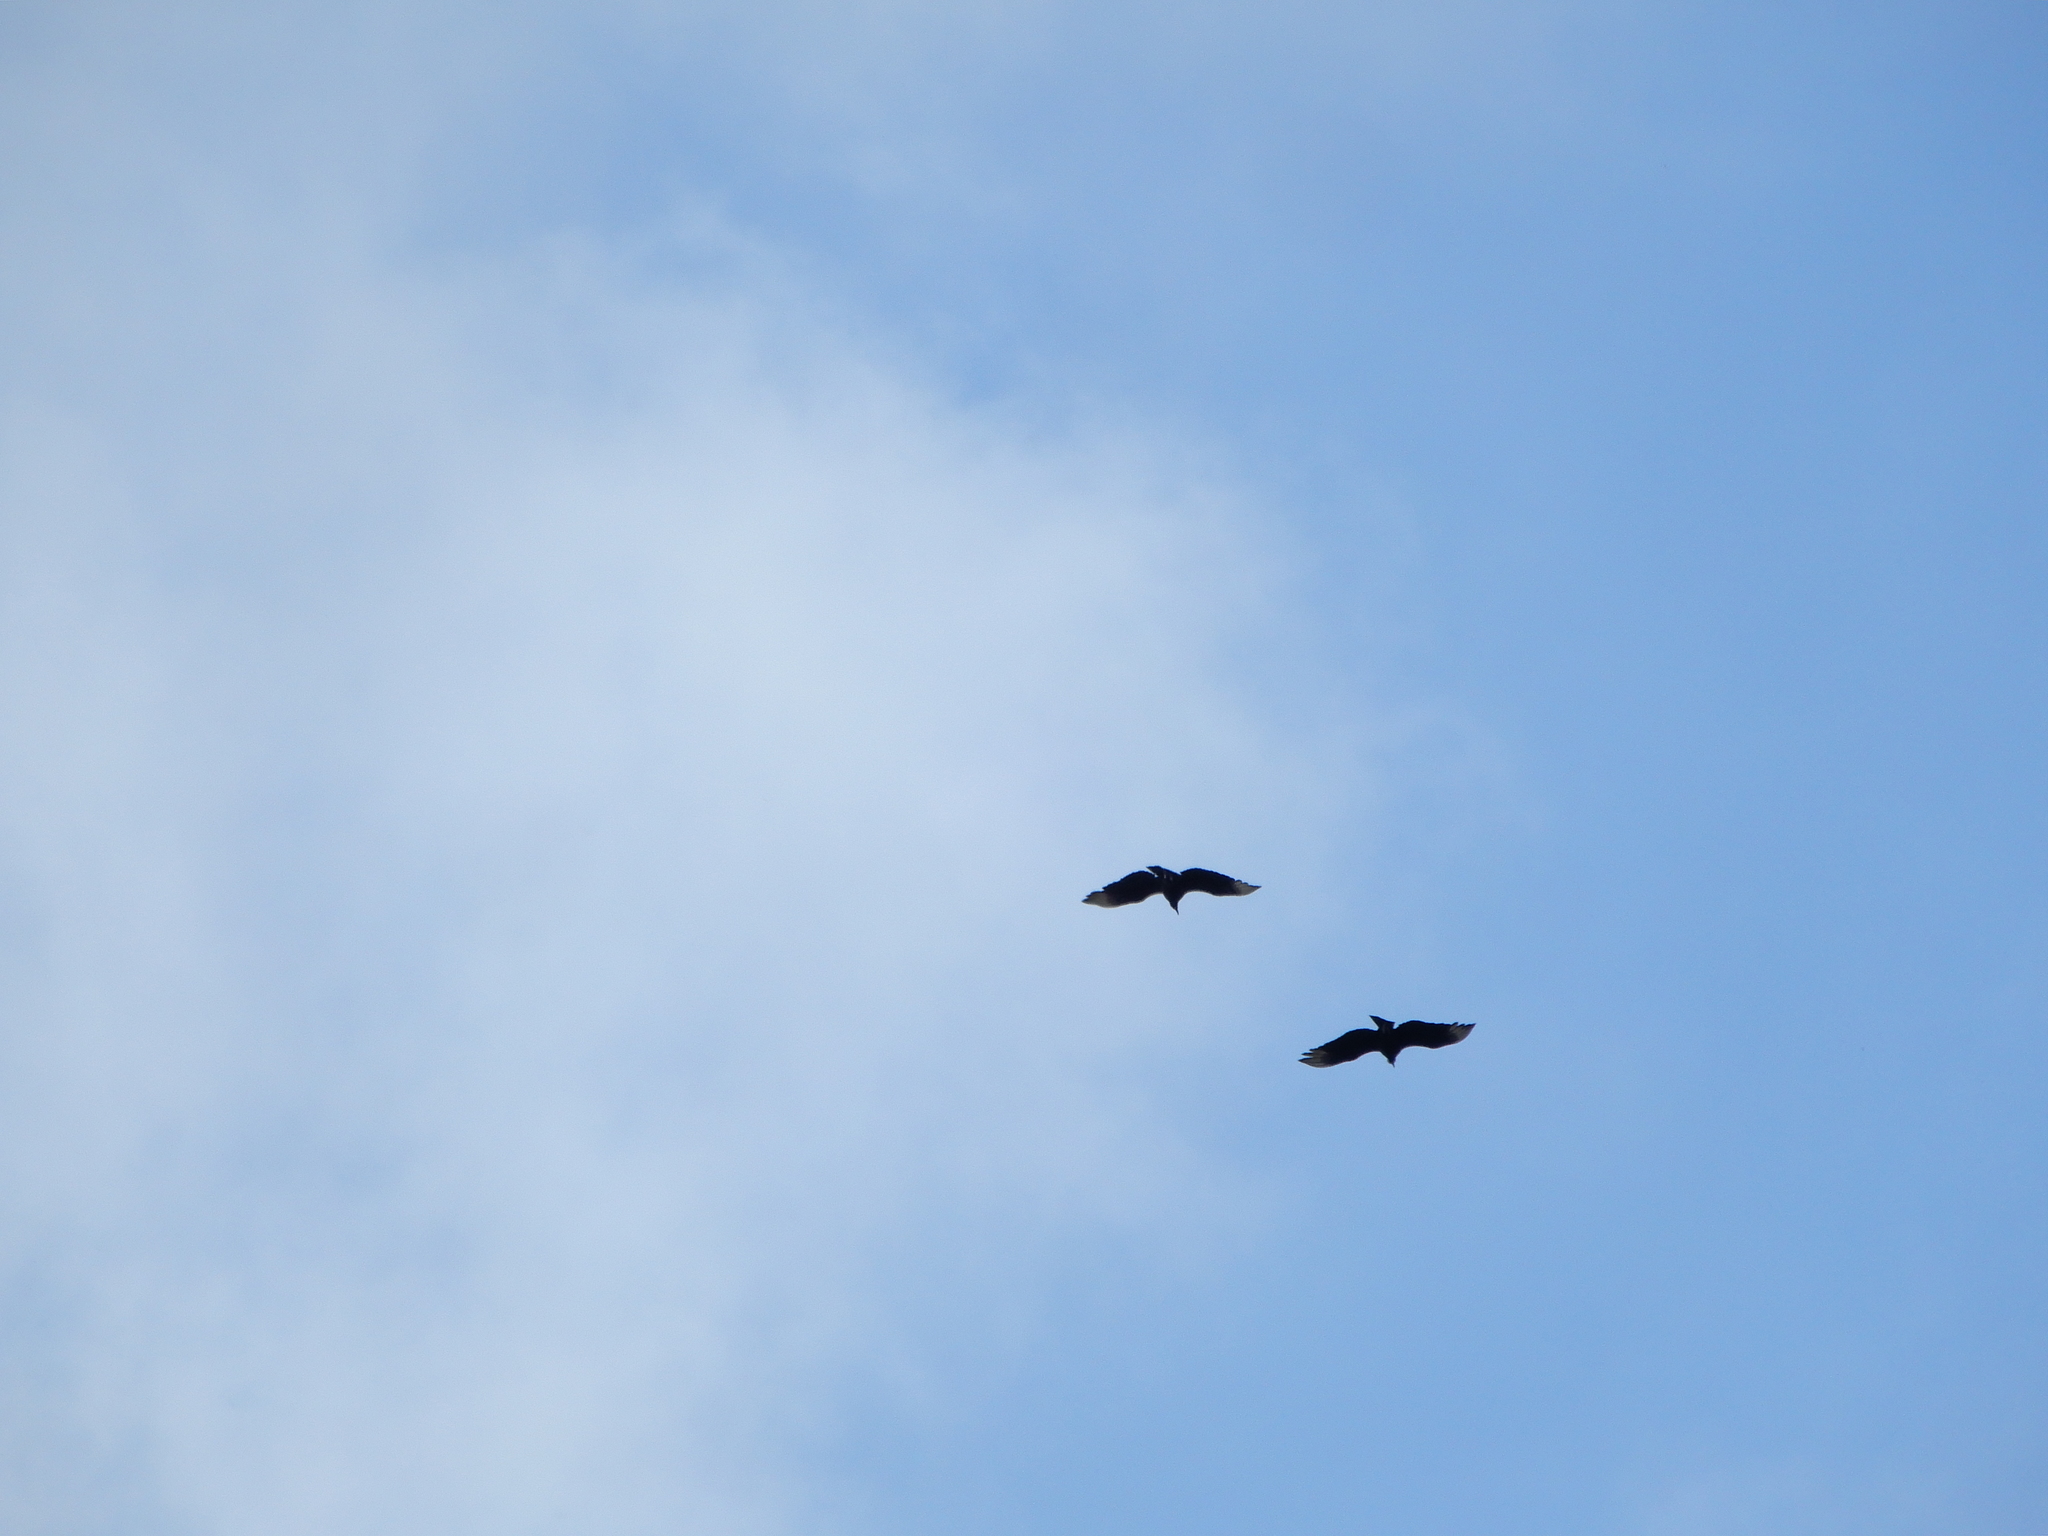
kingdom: Animalia
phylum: Chordata
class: Aves
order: Accipitriformes
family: Cathartidae
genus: Coragyps
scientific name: Coragyps atratus
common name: Black vulture
